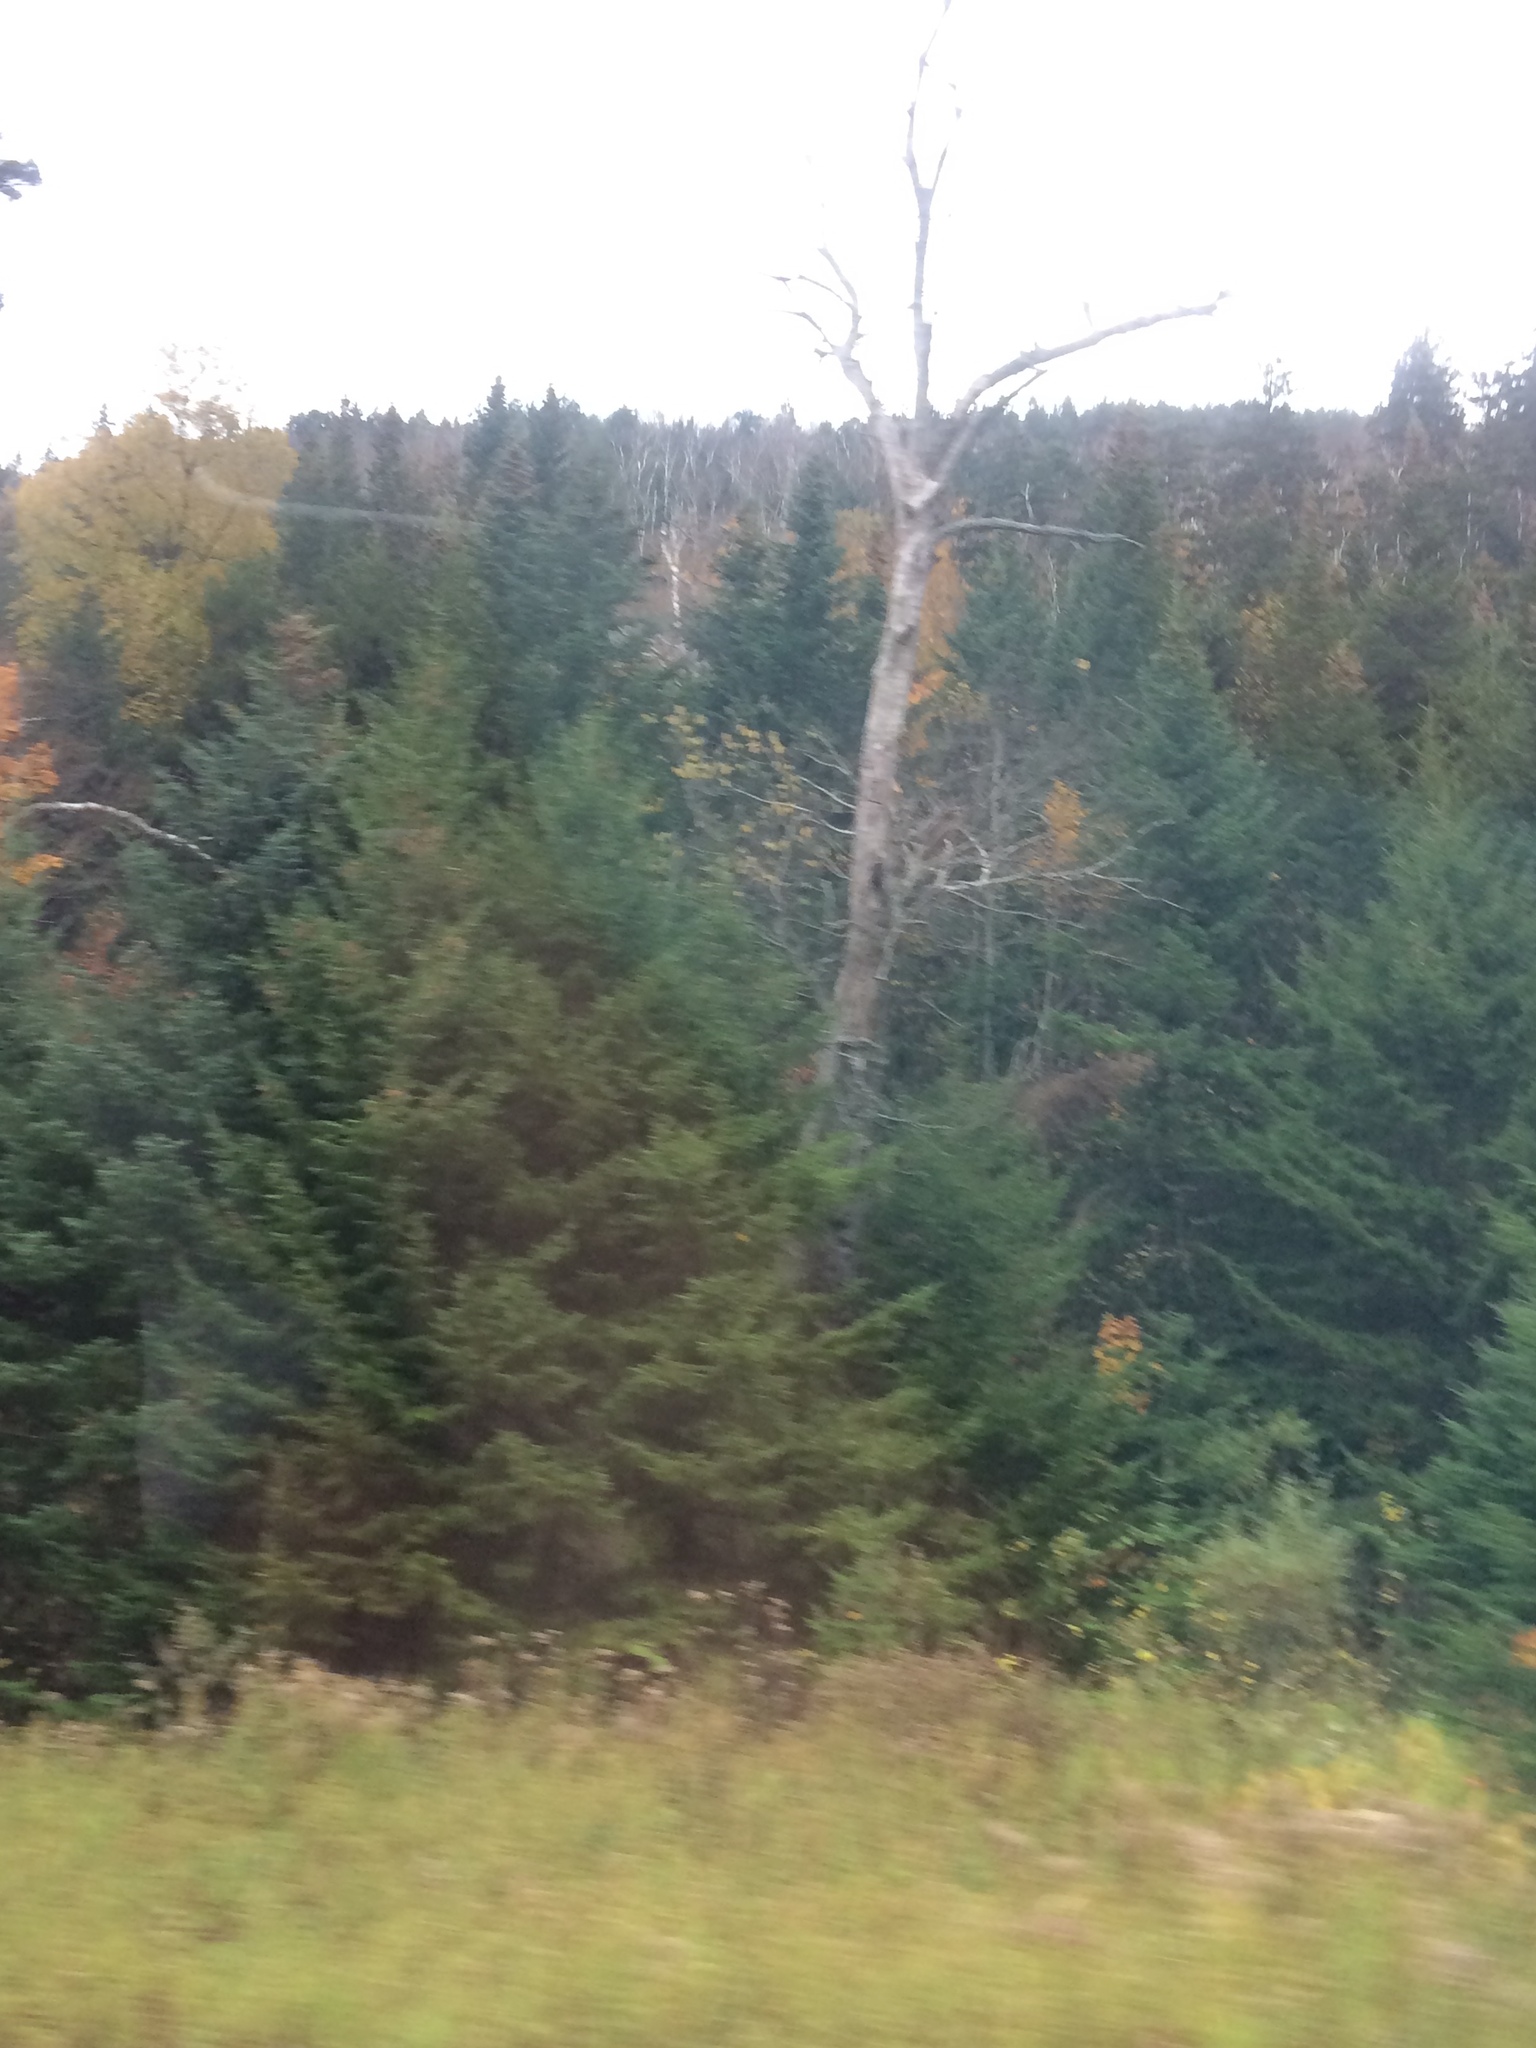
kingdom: Plantae
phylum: Tracheophyta
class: Pinopsida
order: Pinales
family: Pinaceae
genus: Abies
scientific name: Abies balsamea
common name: Balsam fir
